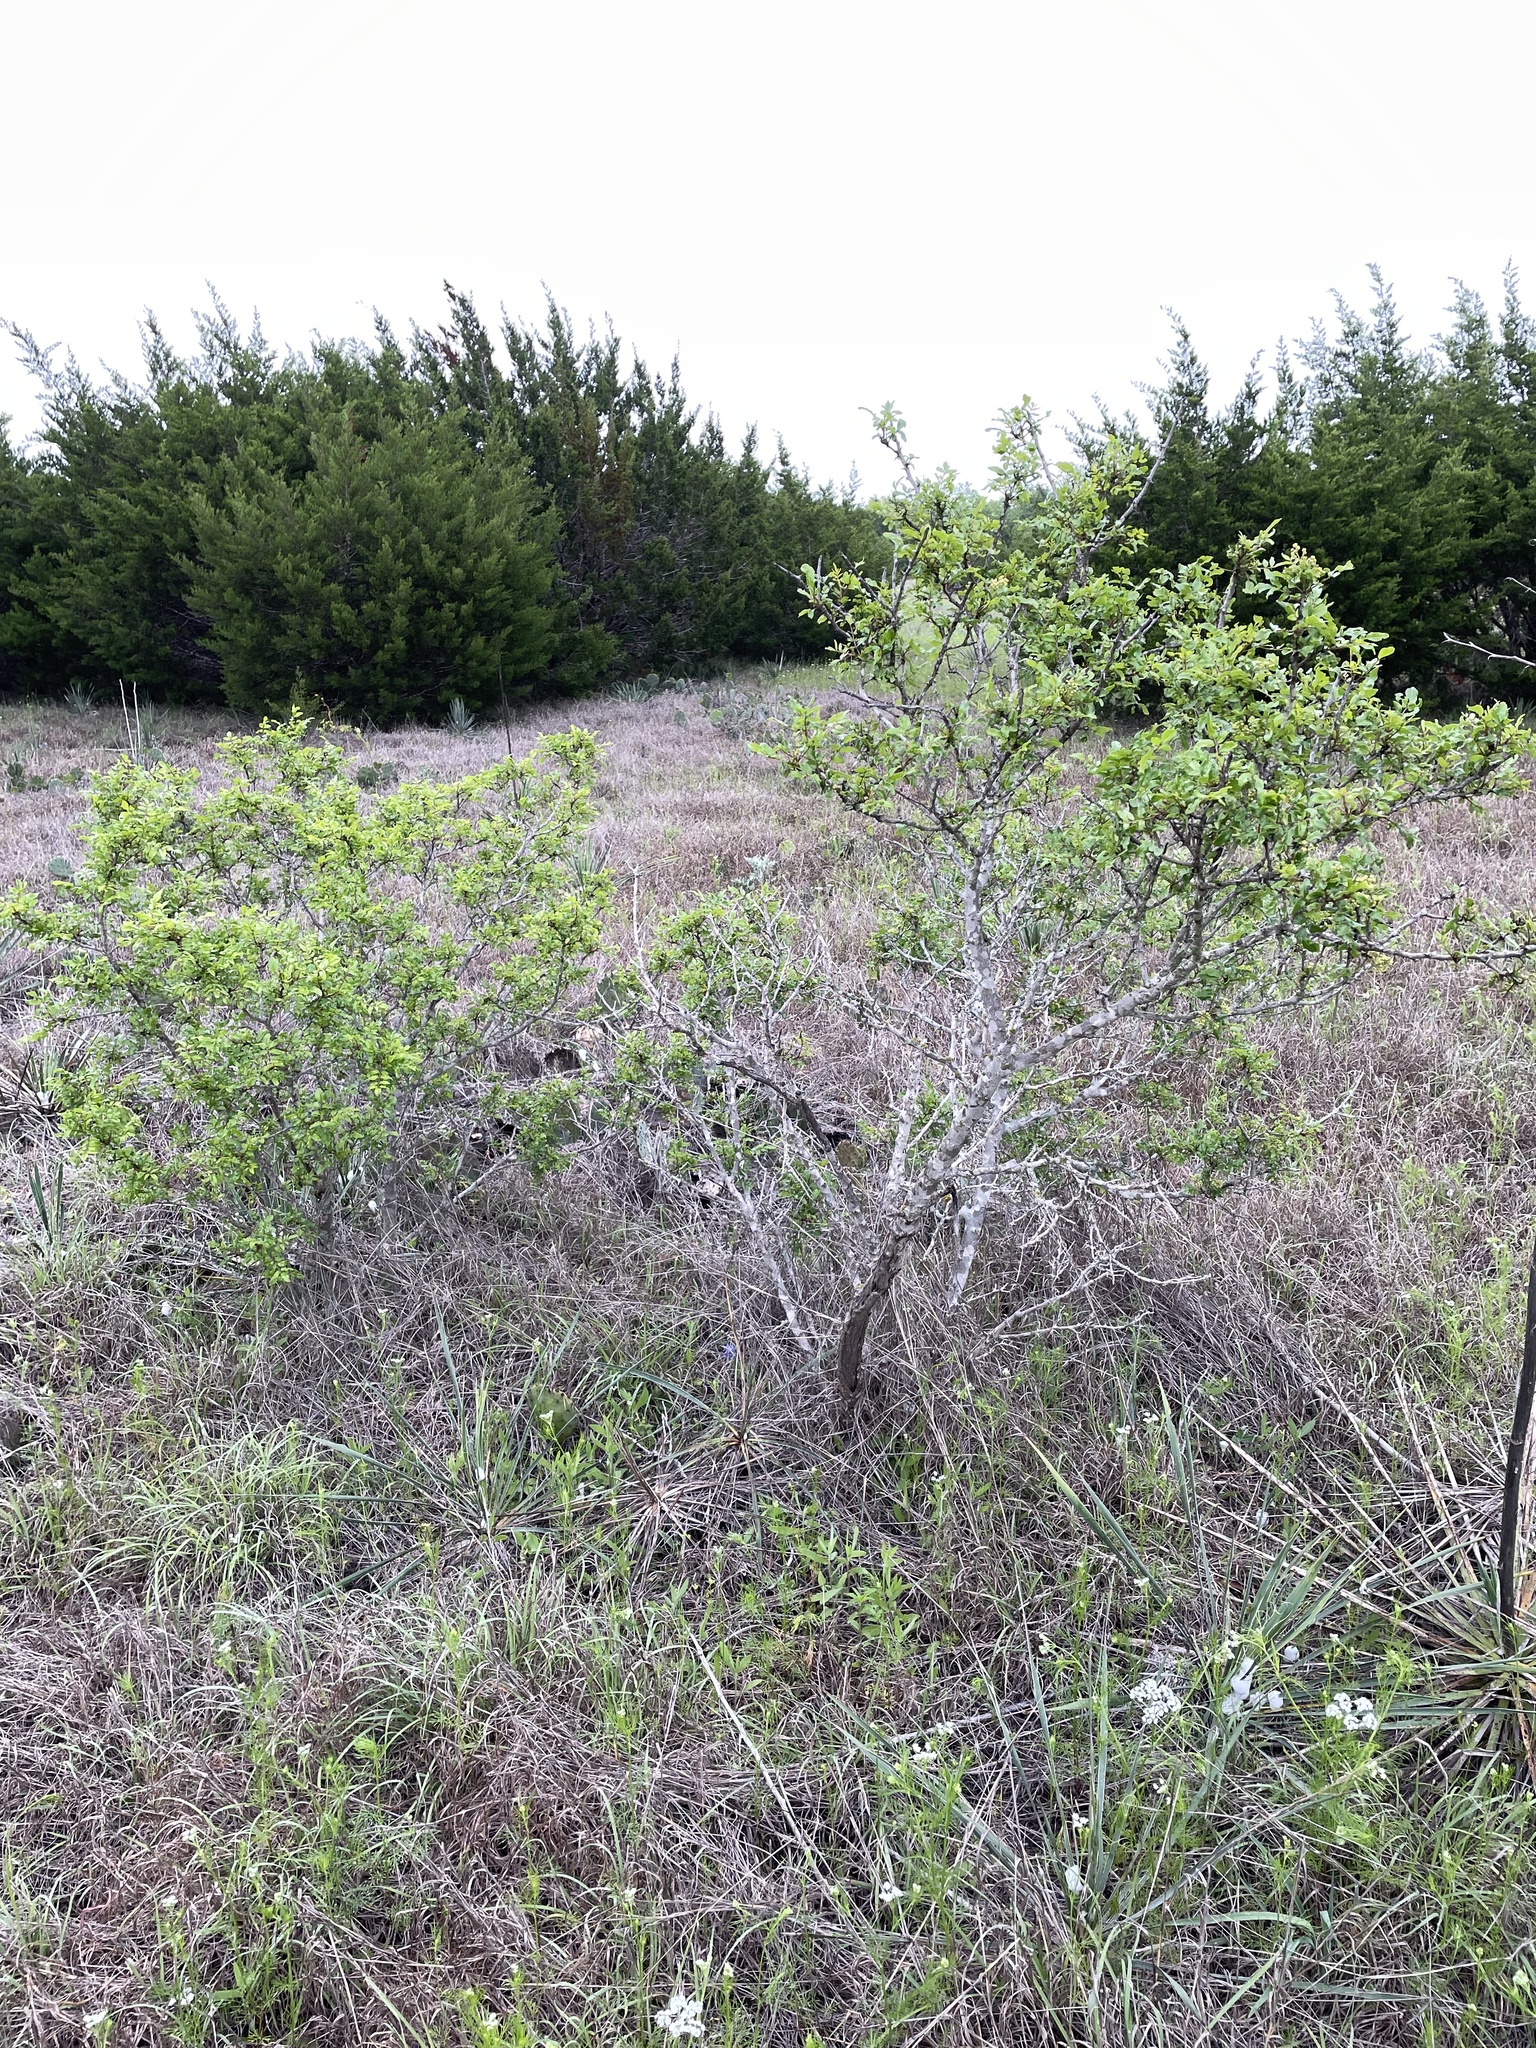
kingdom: Plantae
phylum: Tracheophyta
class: Magnoliopsida
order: Sapindales
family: Rutaceae
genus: Zanthoxylum
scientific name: Zanthoxylum clava-herculis
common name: Hercules'-club
